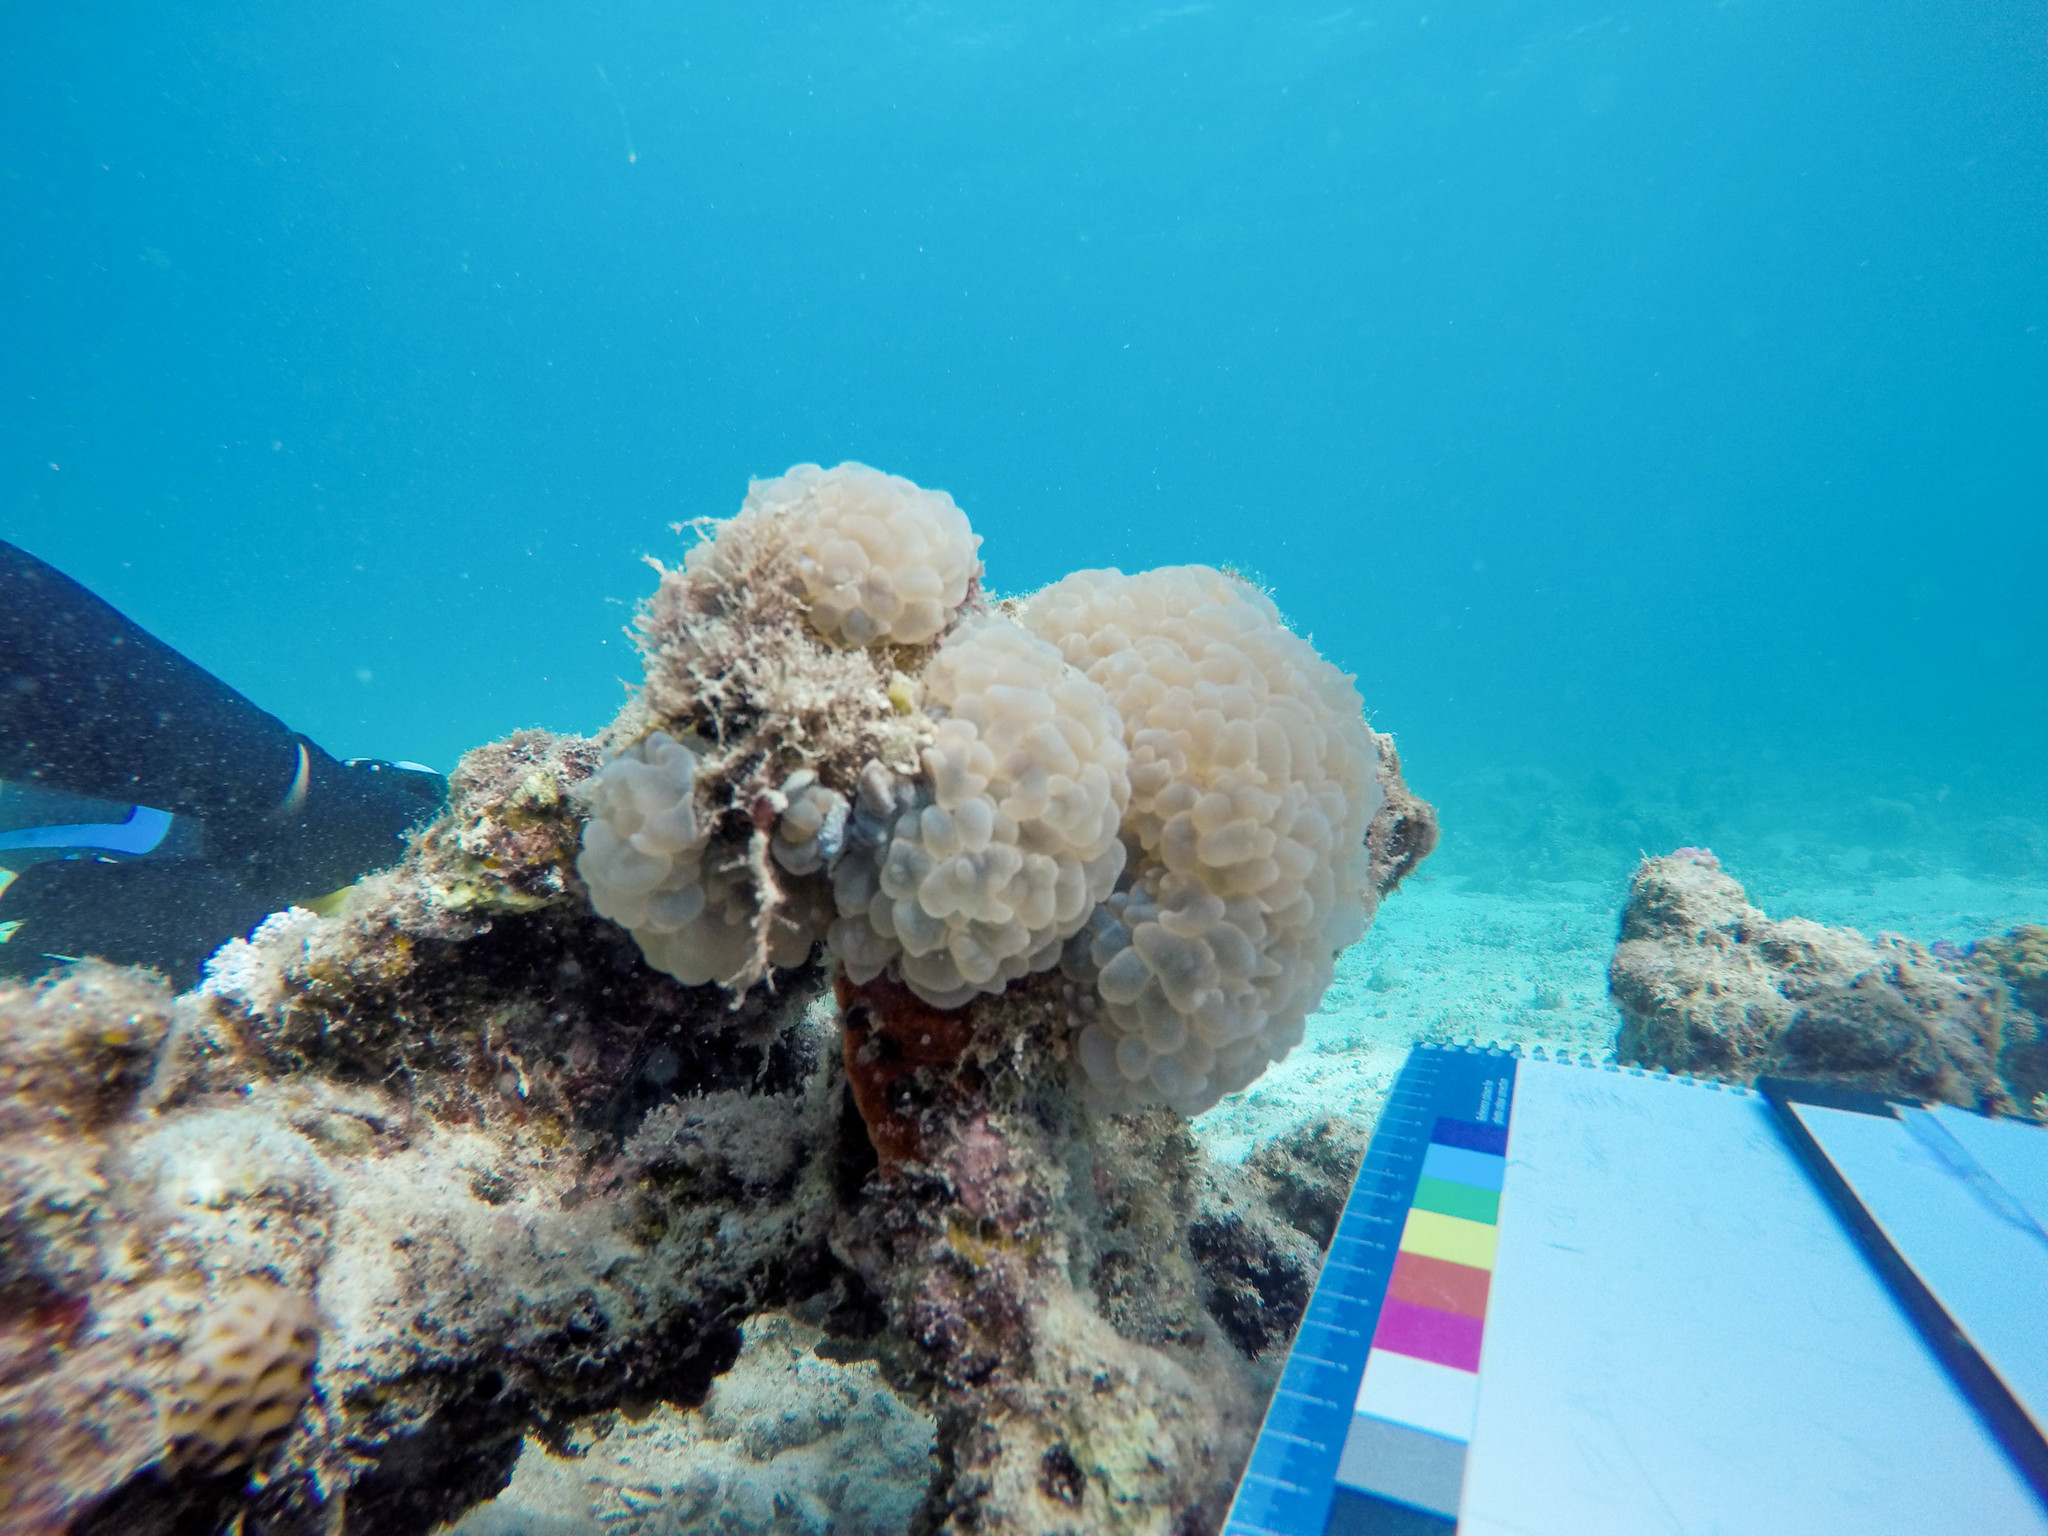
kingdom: Animalia
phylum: Cnidaria
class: Anthozoa
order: Scleractinia
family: Plerogyridae
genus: Plerogyra
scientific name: Plerogyra sinuosa
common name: Bubble coral
